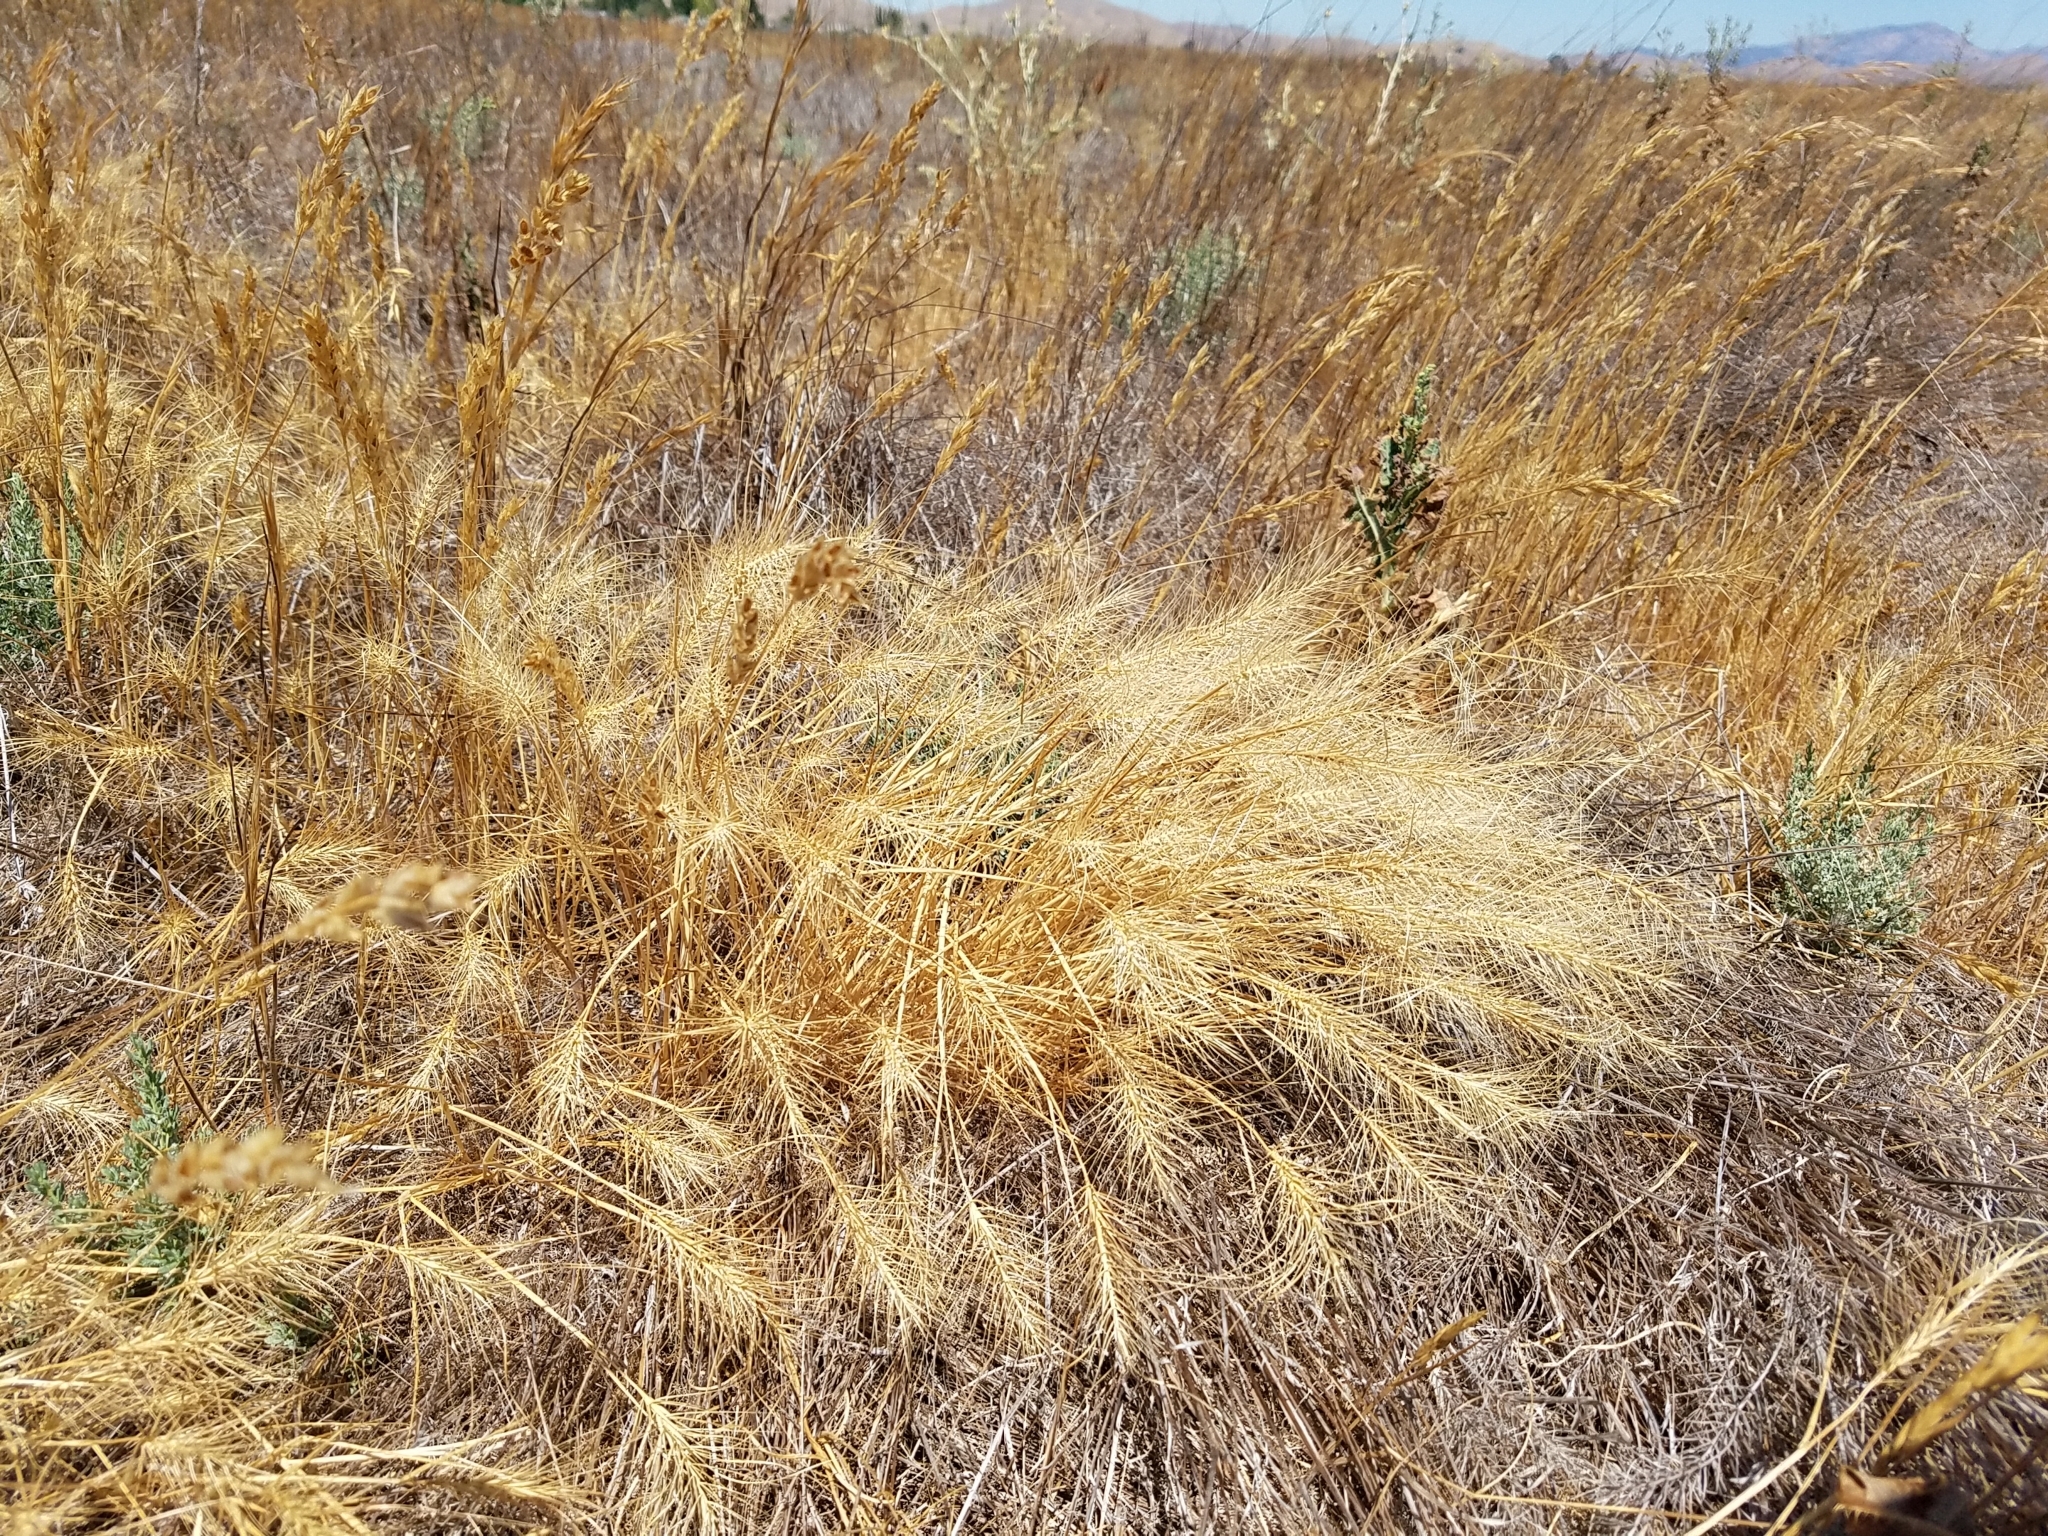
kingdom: Plantae
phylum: Tracheophyta
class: Liliopsida
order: Poales
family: Poaceae
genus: Taeniatherum
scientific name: Taeniatherum caput-medusae
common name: Medusahead
